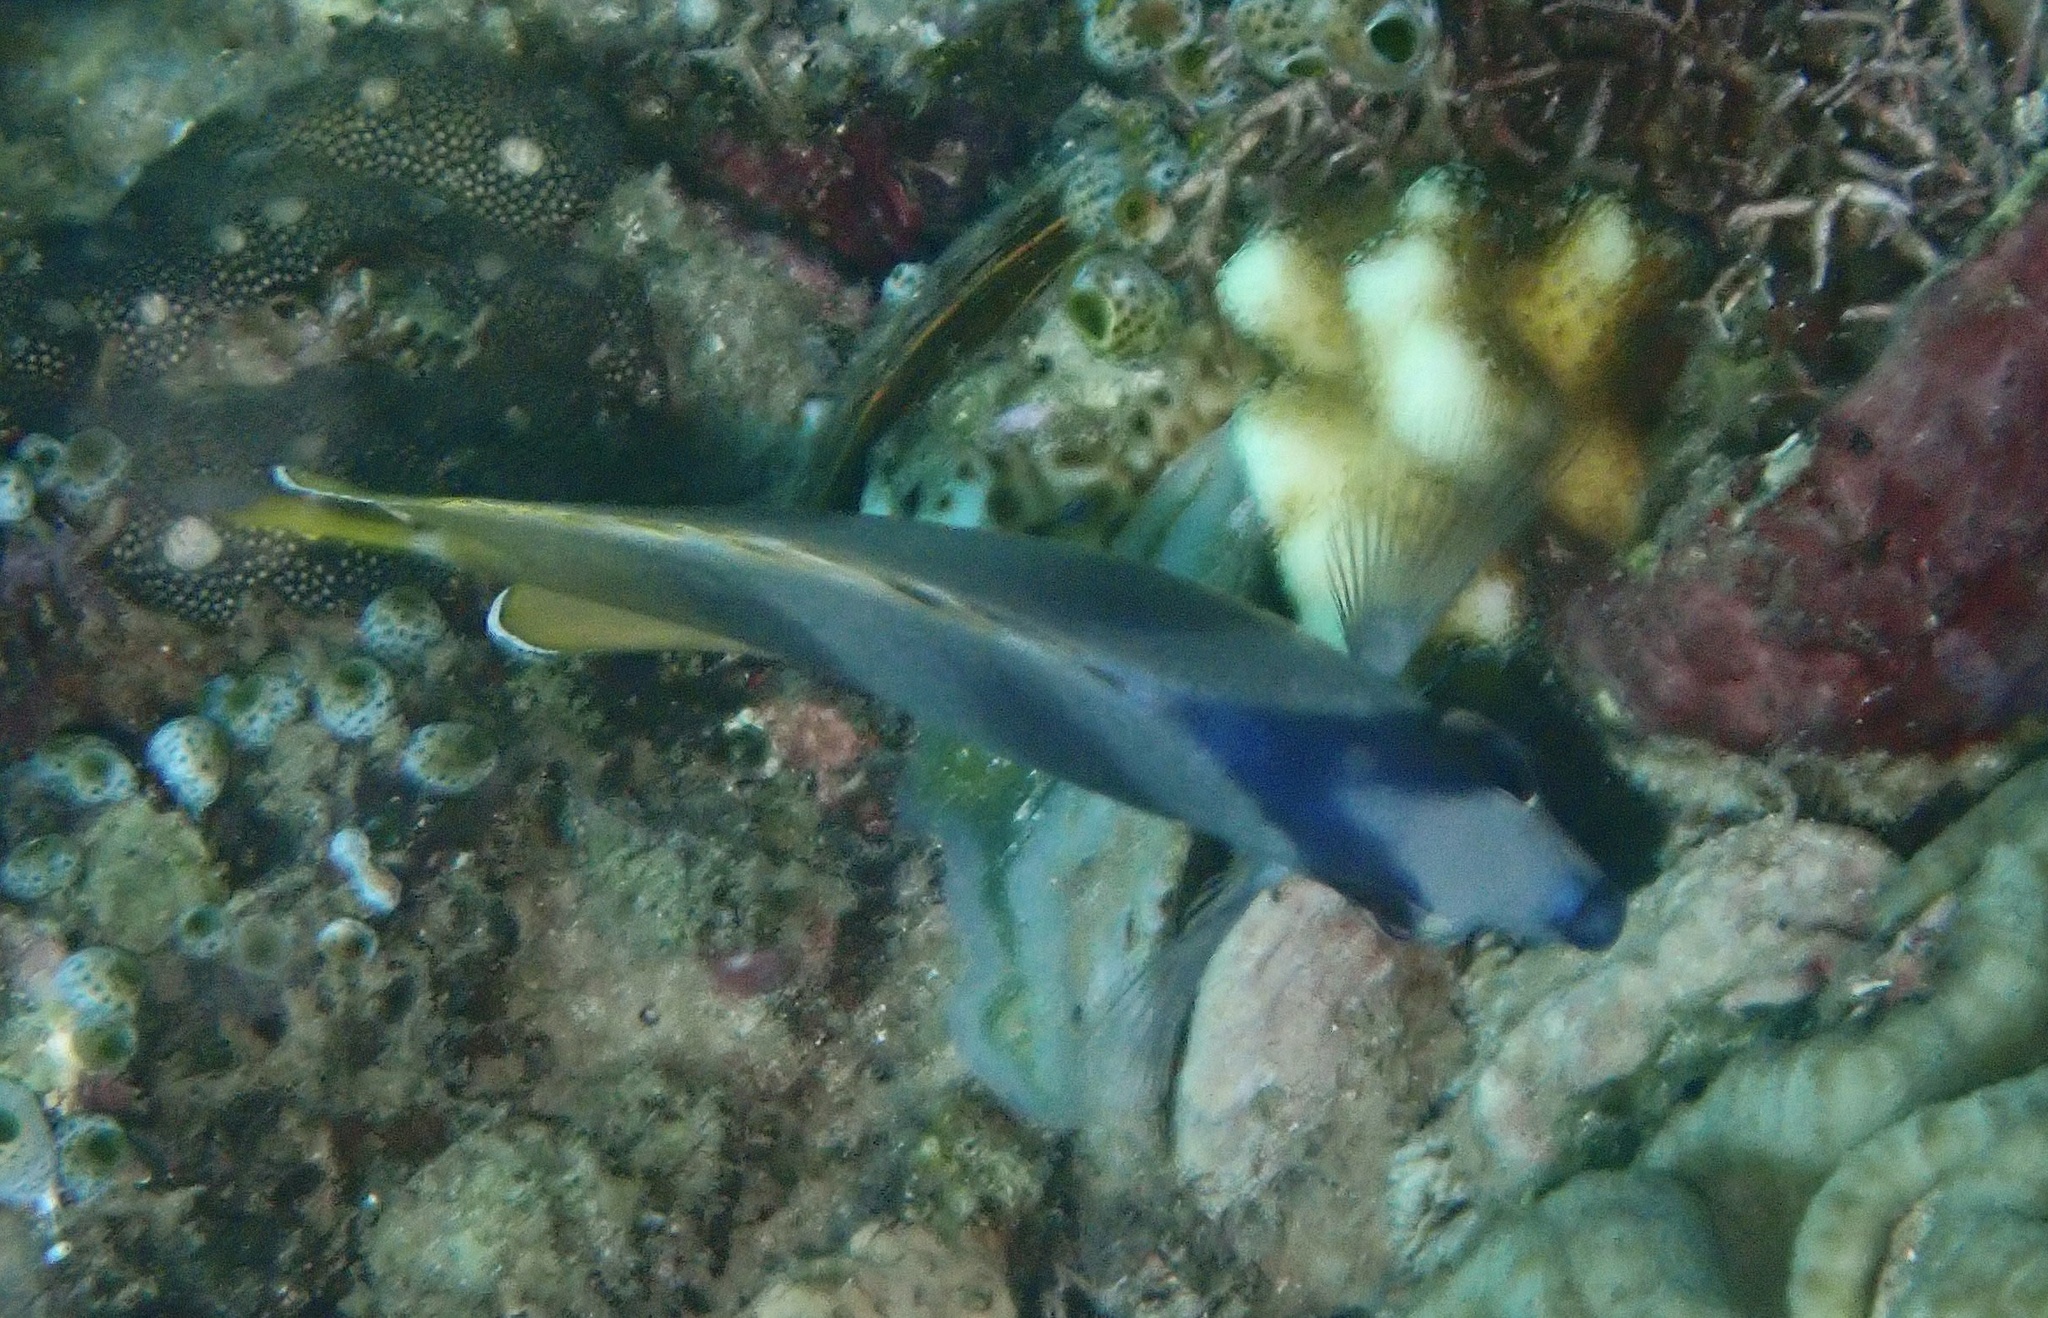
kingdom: Animalia
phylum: Chordata
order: Perciformes
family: Chaetodontidae
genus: Chaetodon
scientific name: Chaetodon kleinii
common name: Klein's butterflyfish
